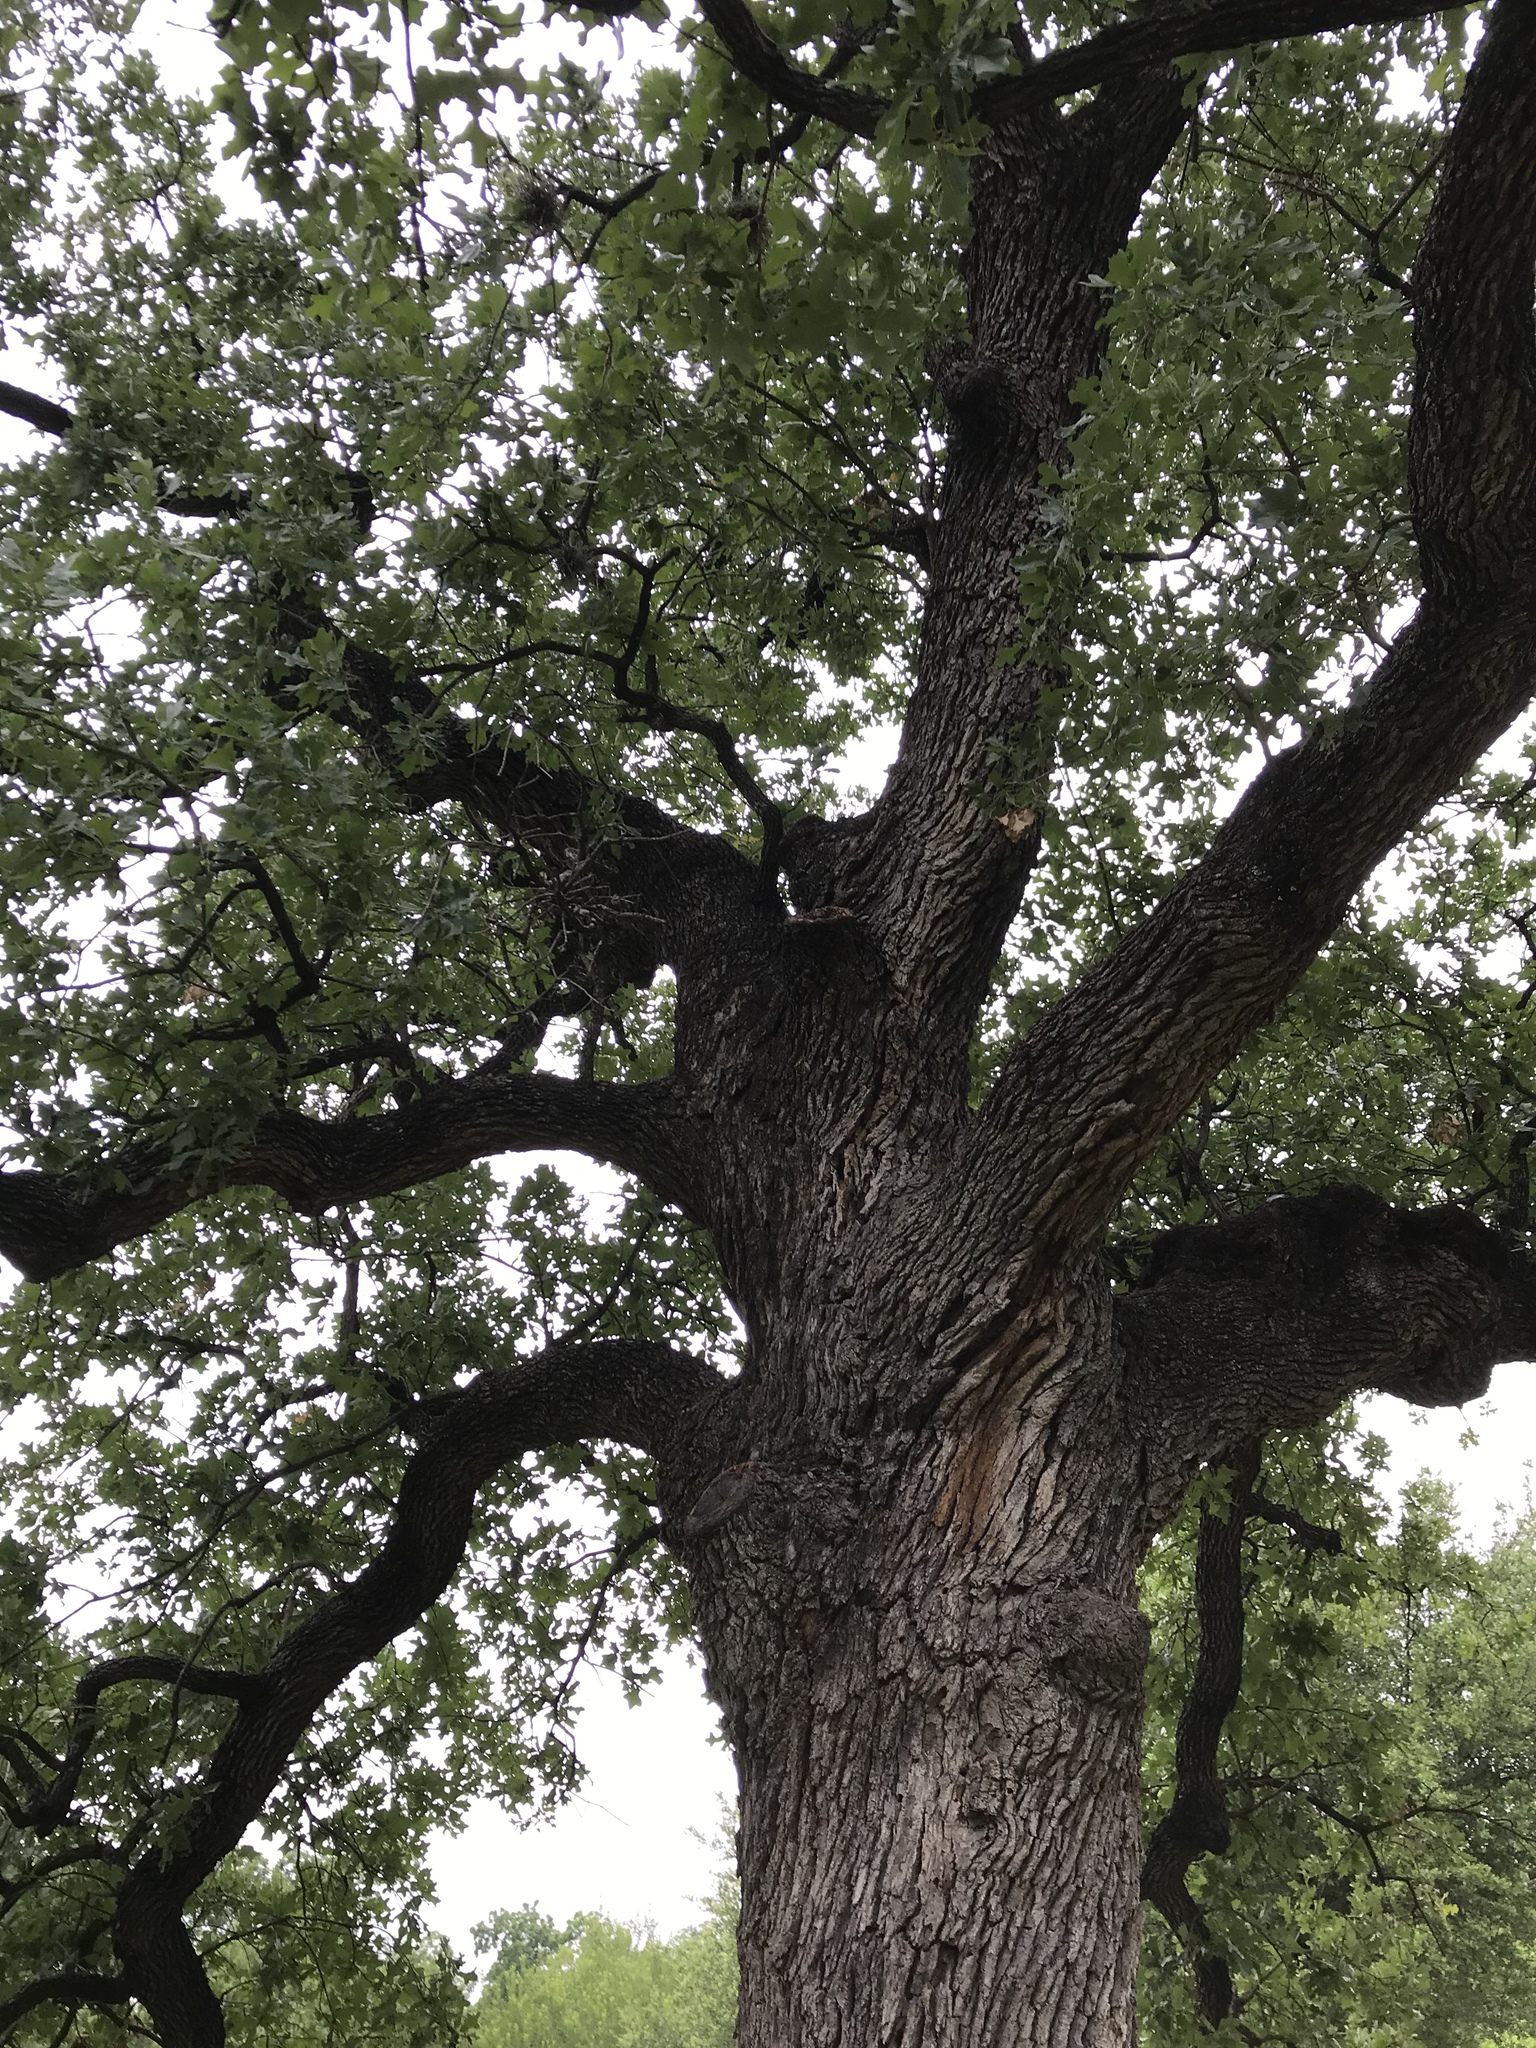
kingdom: Plantae
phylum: Tracheophyta
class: Magnoliopsida
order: Fagales
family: Fagaceae
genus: Quercus
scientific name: Quercus stellata
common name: Post oak
